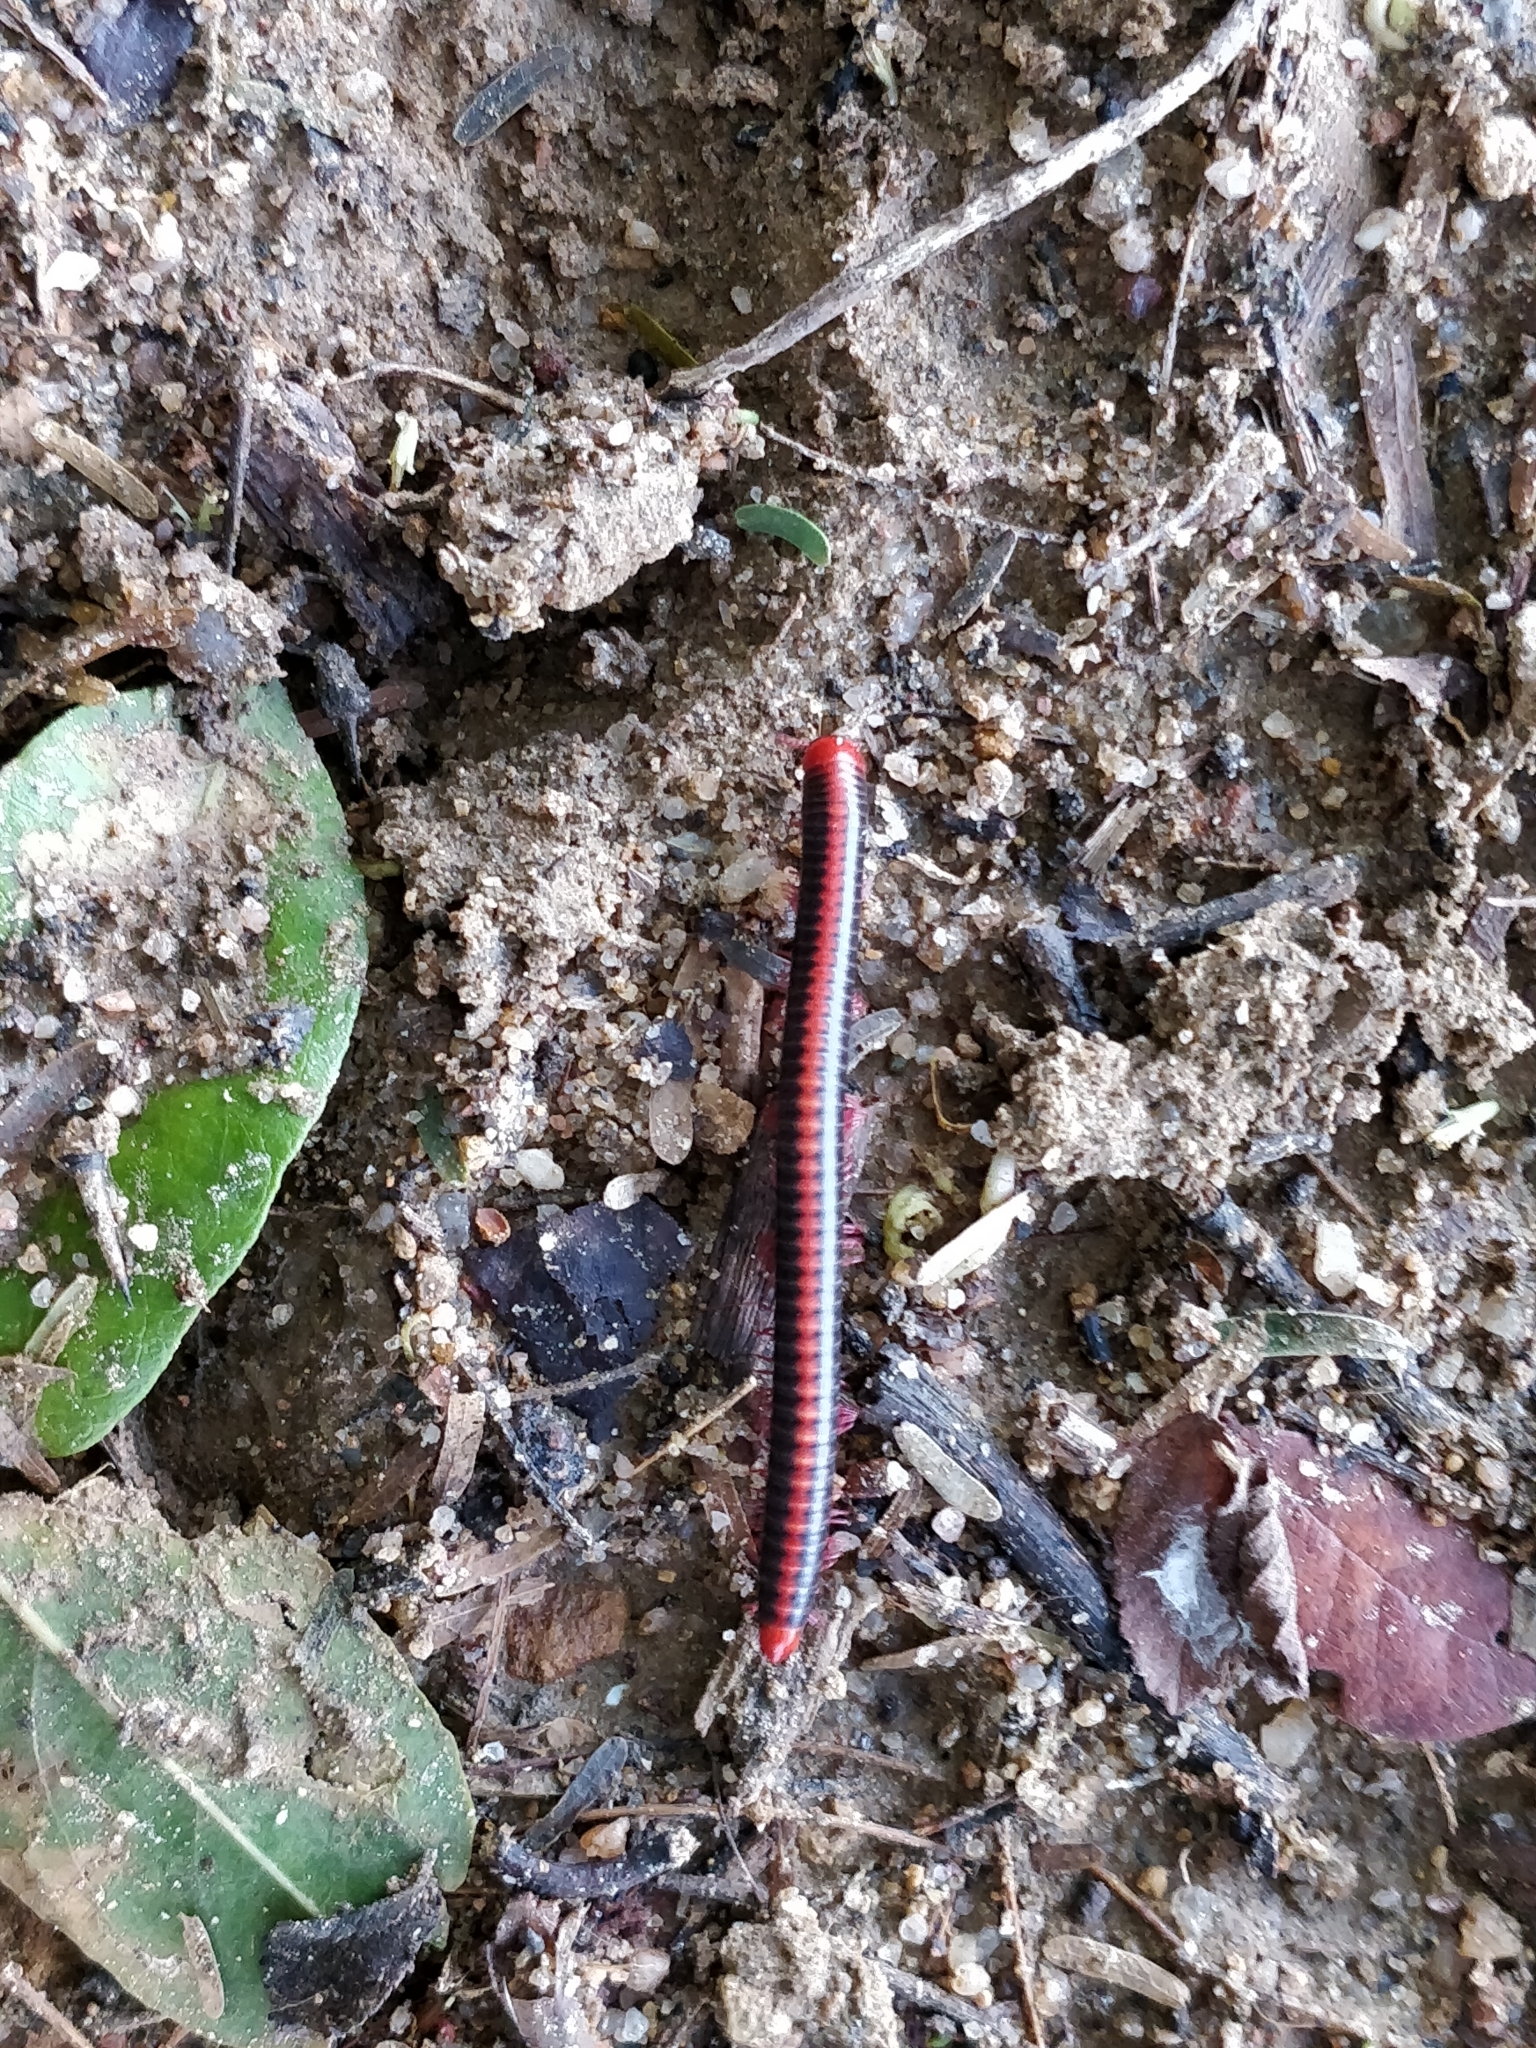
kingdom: Animalia
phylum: Arthropoda
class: Diplopoda
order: Spirobolida
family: Pachybolidae
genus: Xenobolus
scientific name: Xenobolus carnifex
